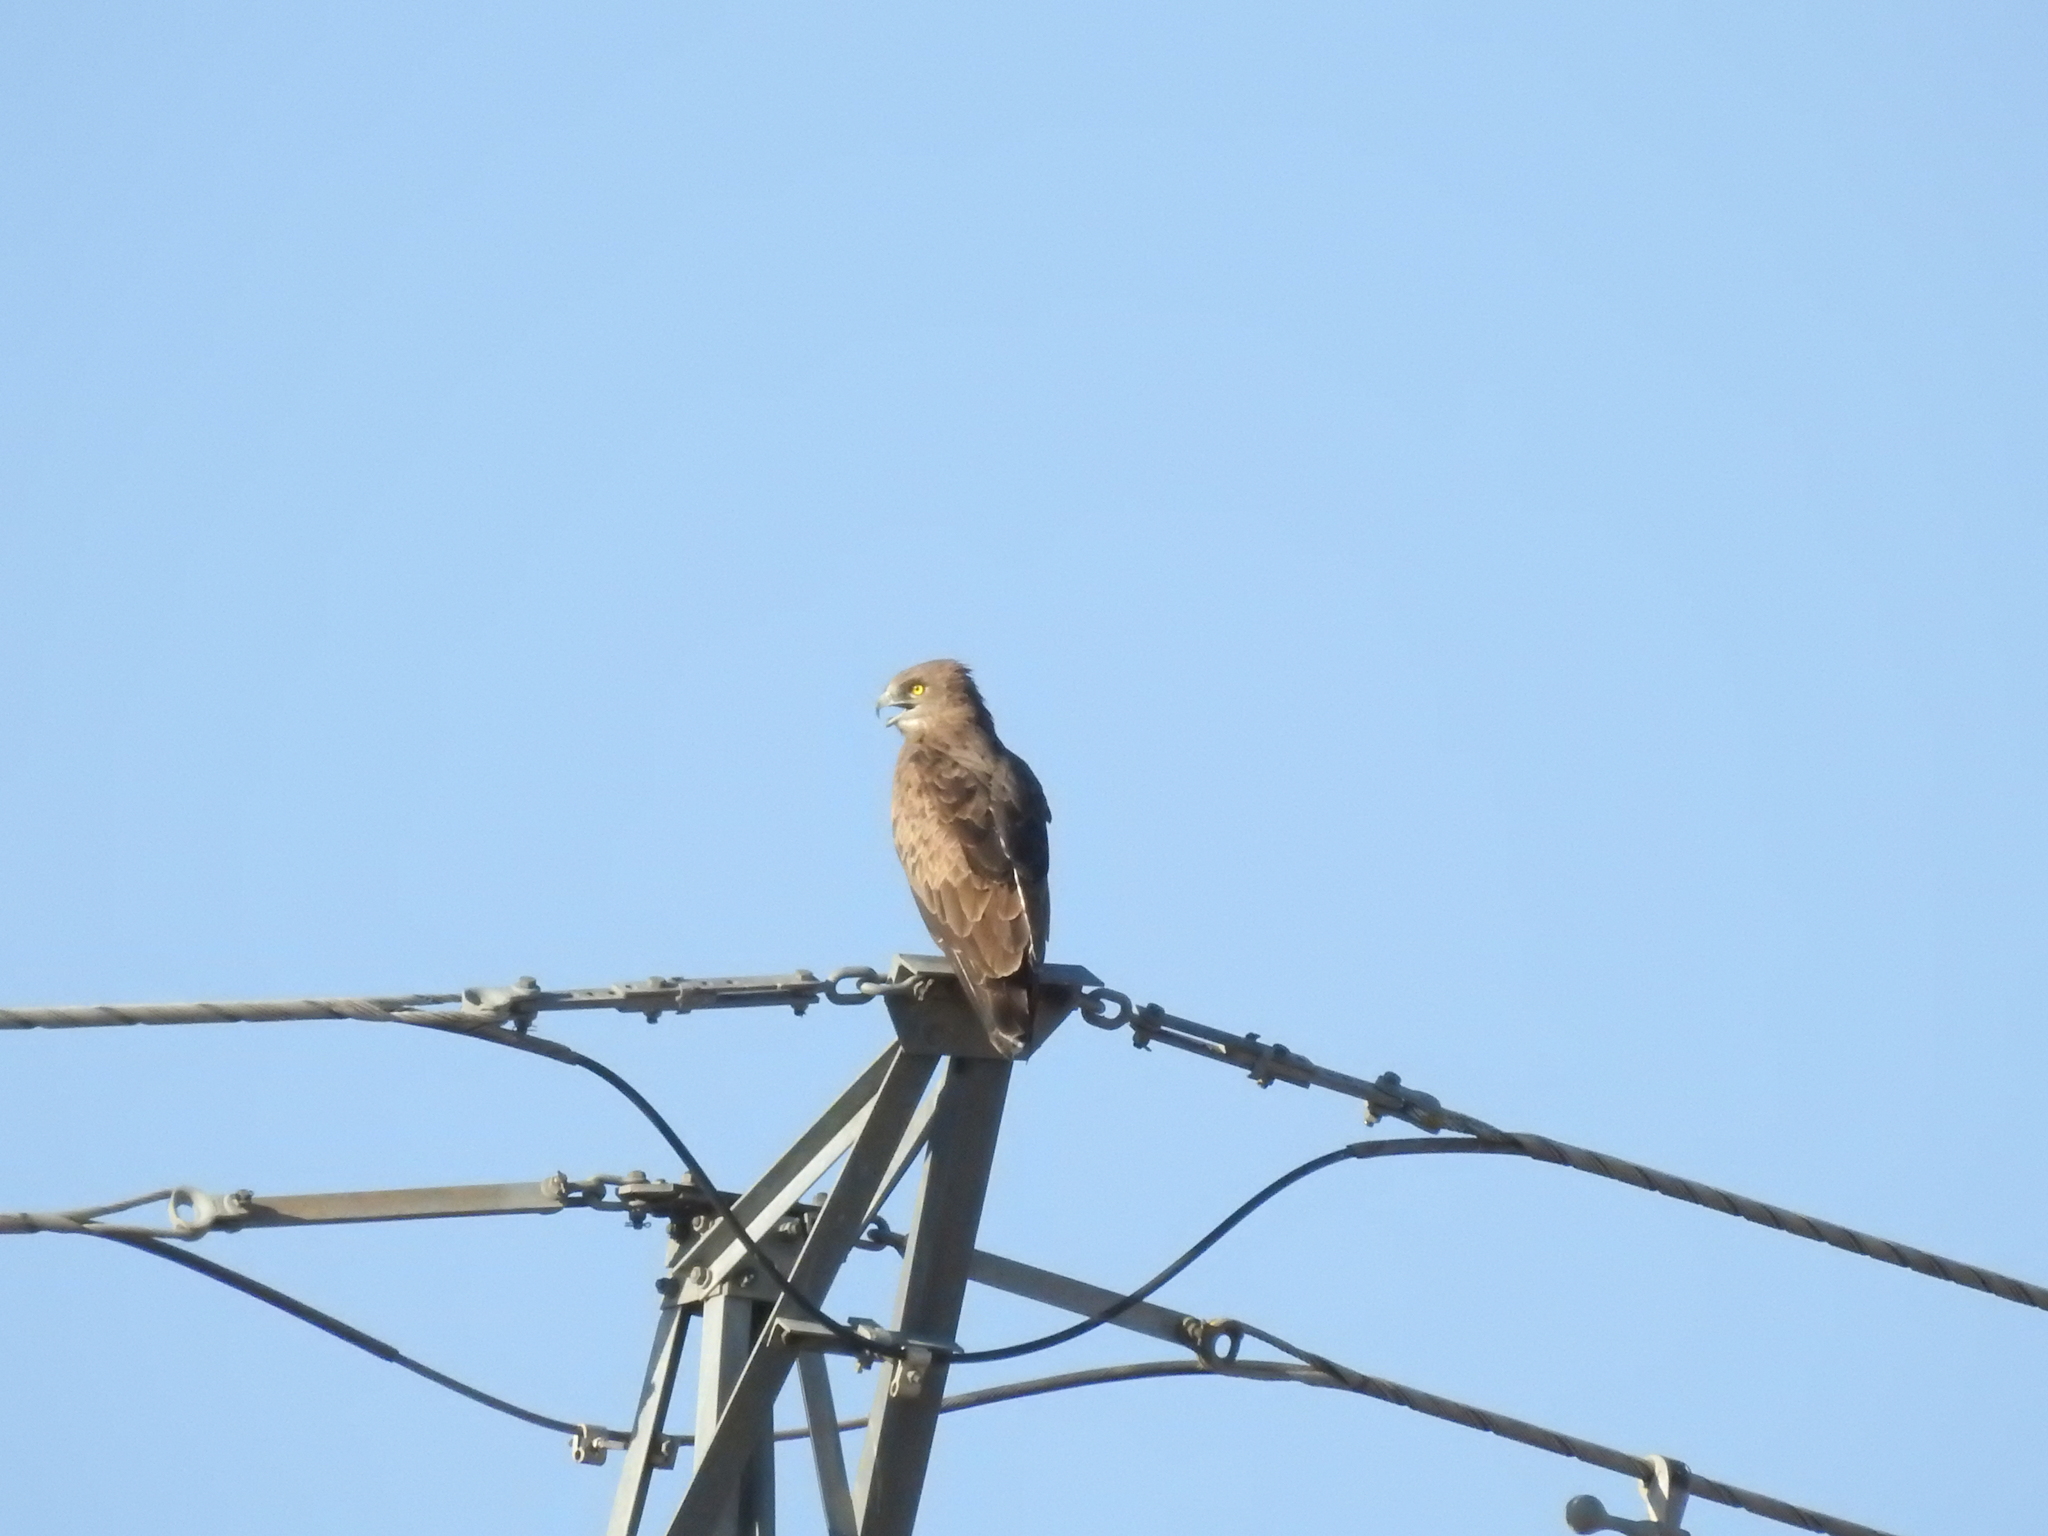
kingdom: Animalia
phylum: Chordata
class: Aves
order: Accipitriformes
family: Accipitridae
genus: Circaetus
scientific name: Circaetus gallicus
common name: Short-toed snake eagle
